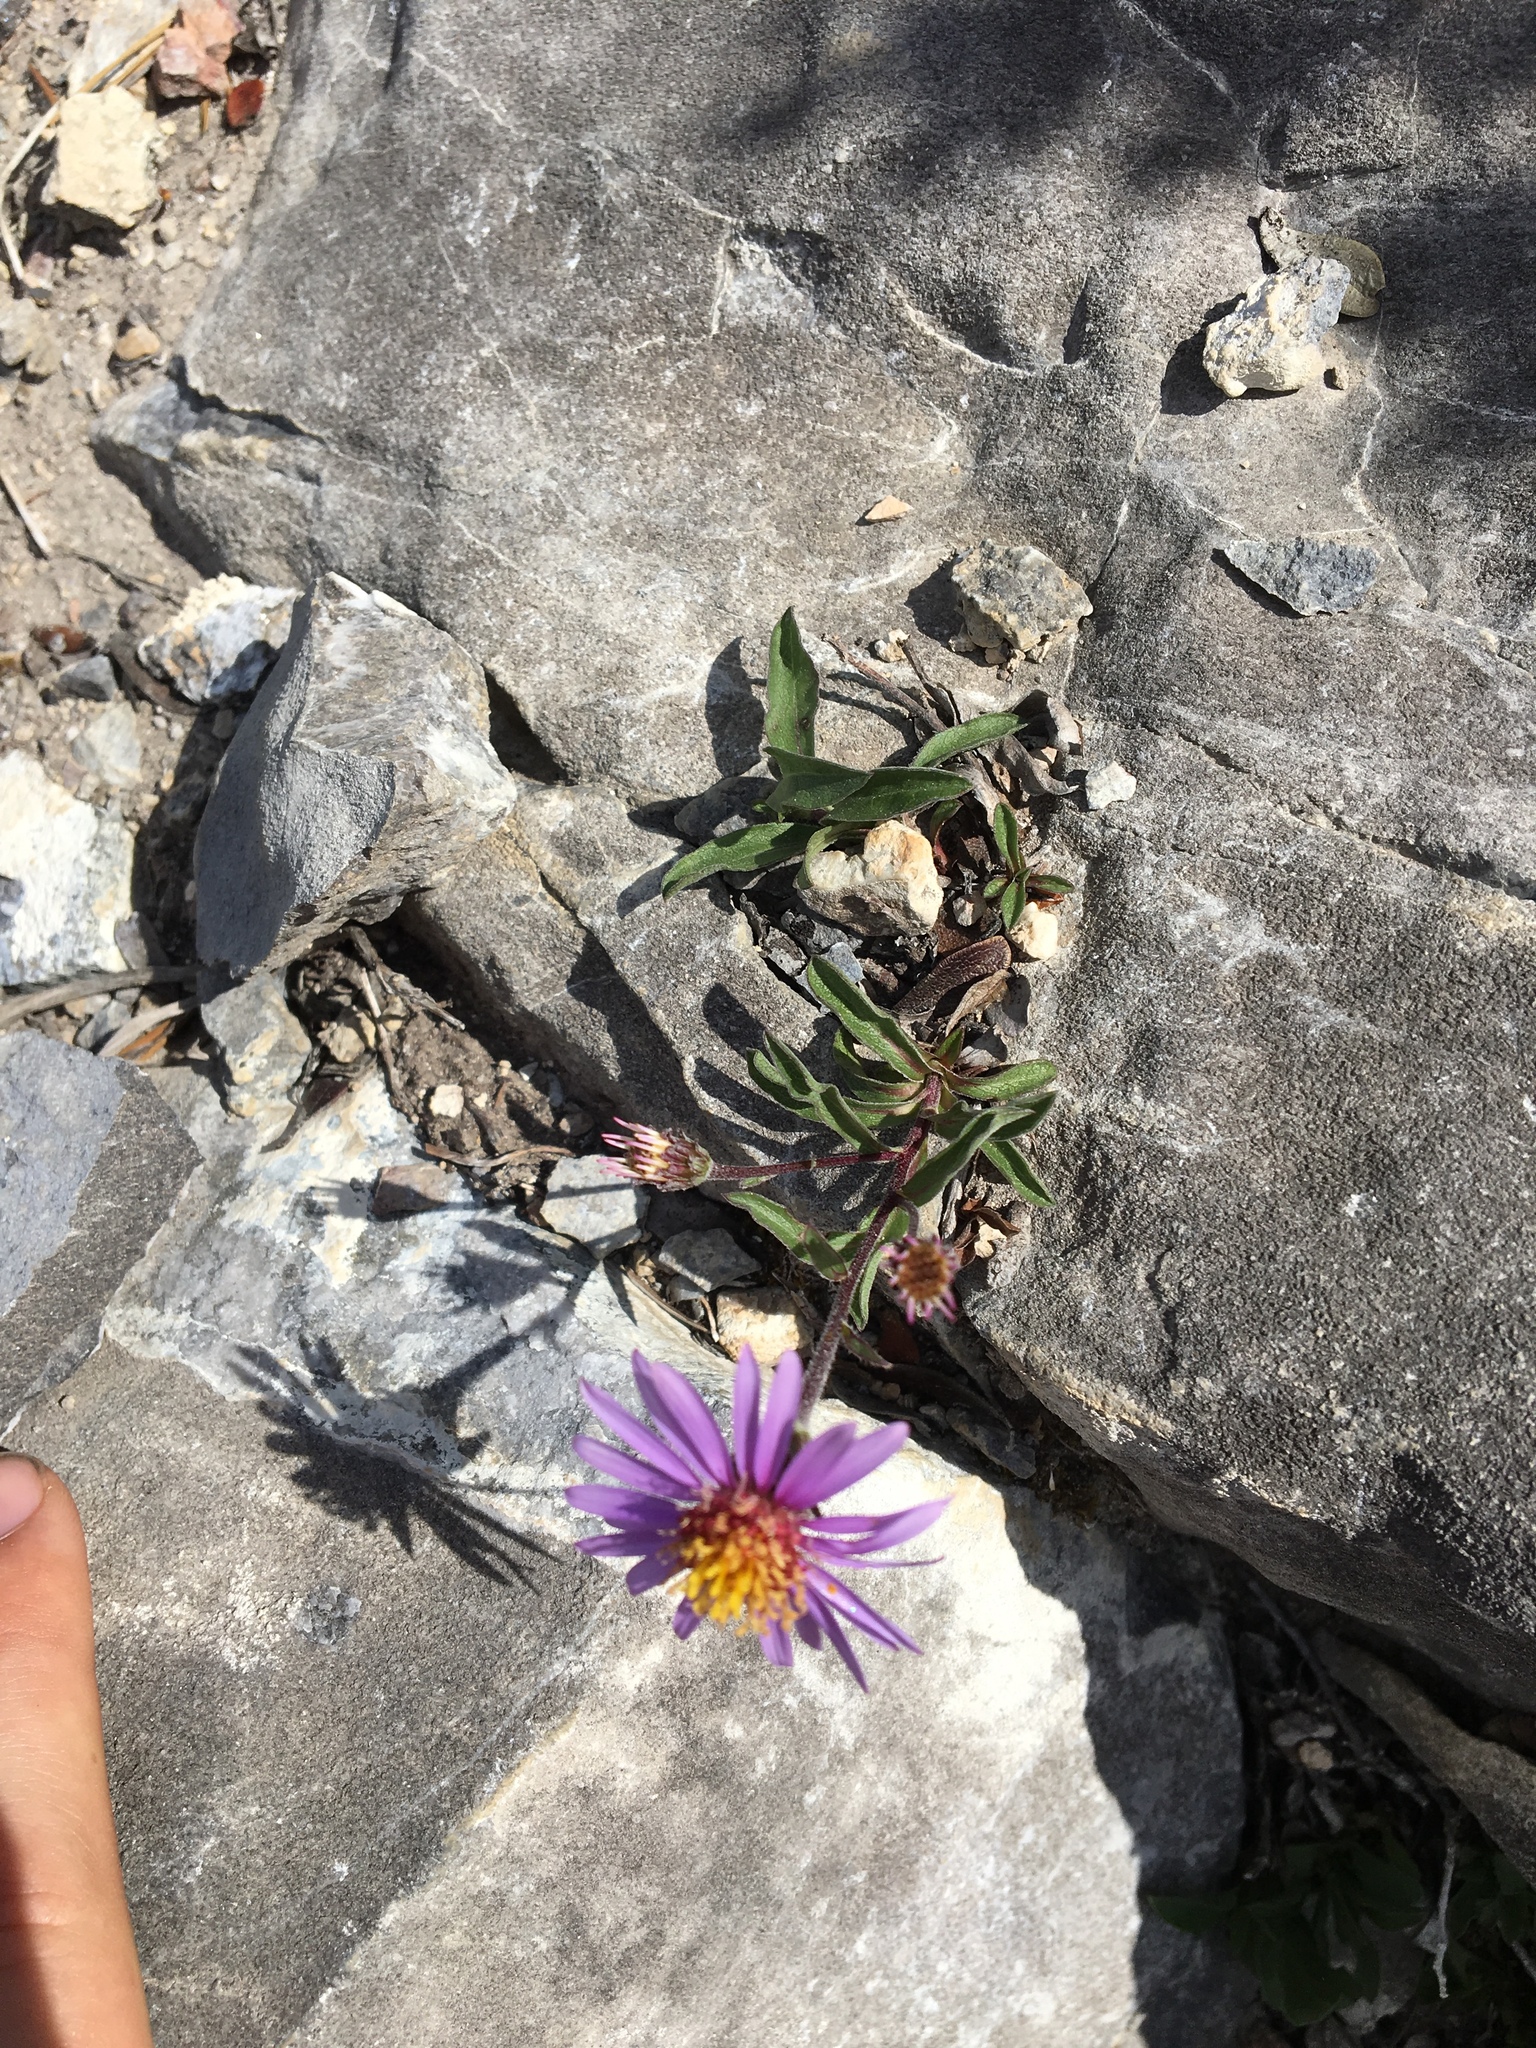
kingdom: Plantae
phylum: Tracheophyta
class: Magnoliopsida
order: Asterales
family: Asteraceae
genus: Eurybia
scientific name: Eurybia sibirica
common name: Arctic aster
